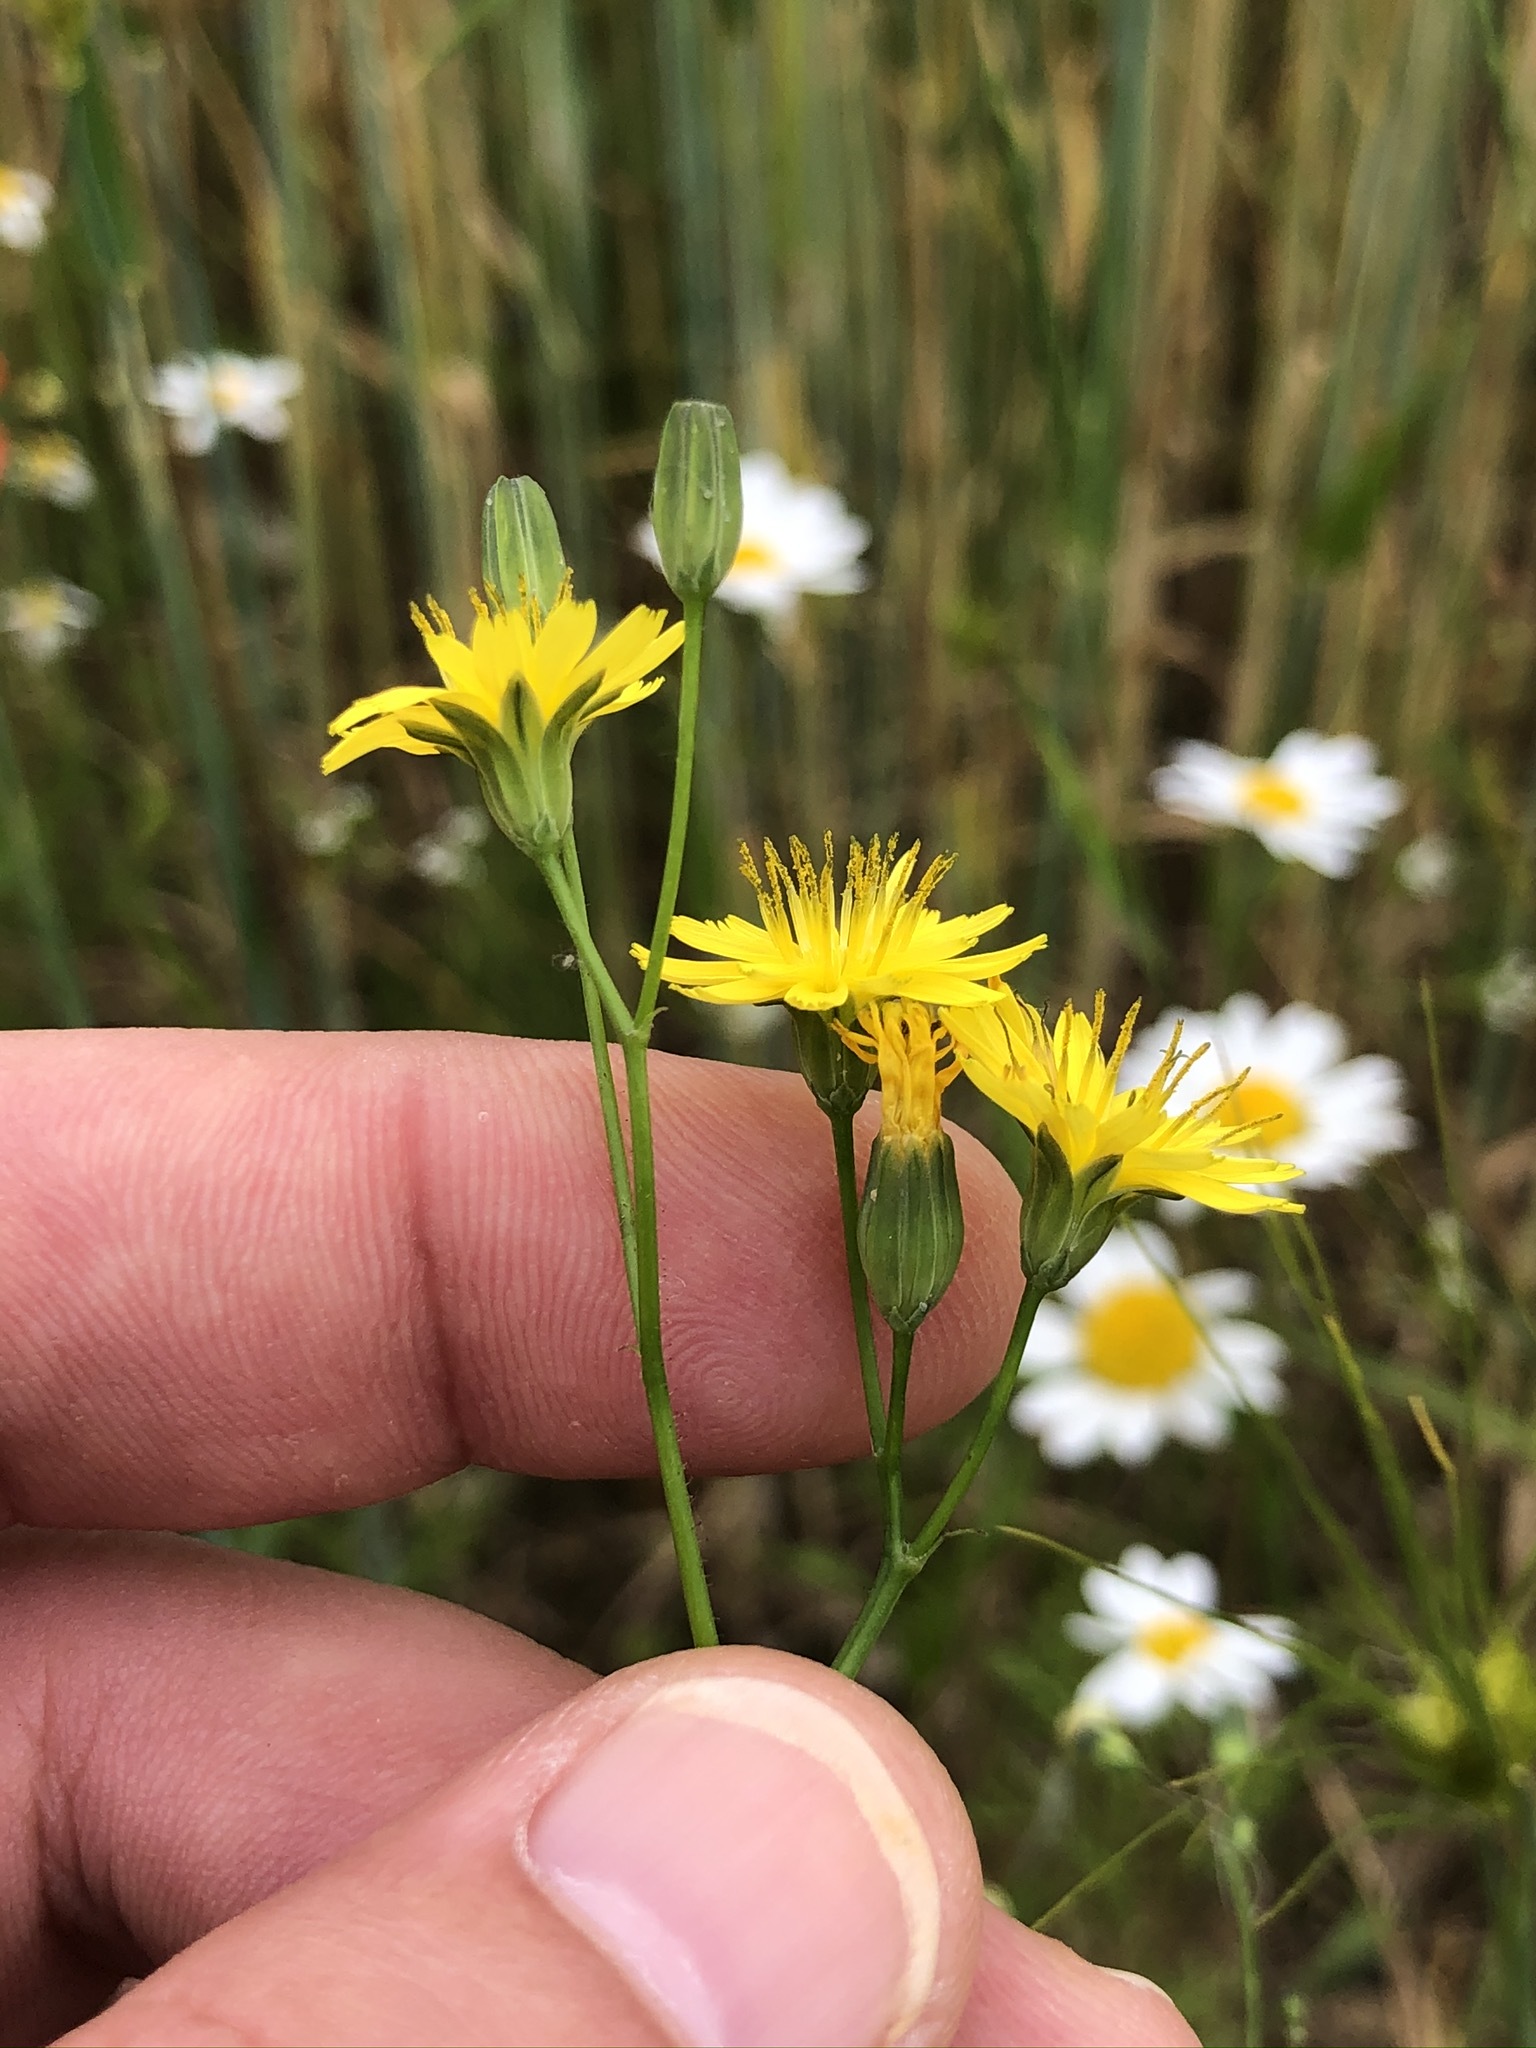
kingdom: Plantae
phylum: Tracheophyta
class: Magnoliopsida
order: Asterales
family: Asteraceae
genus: Lapsana
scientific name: Lapsana communis
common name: Nipplewort
